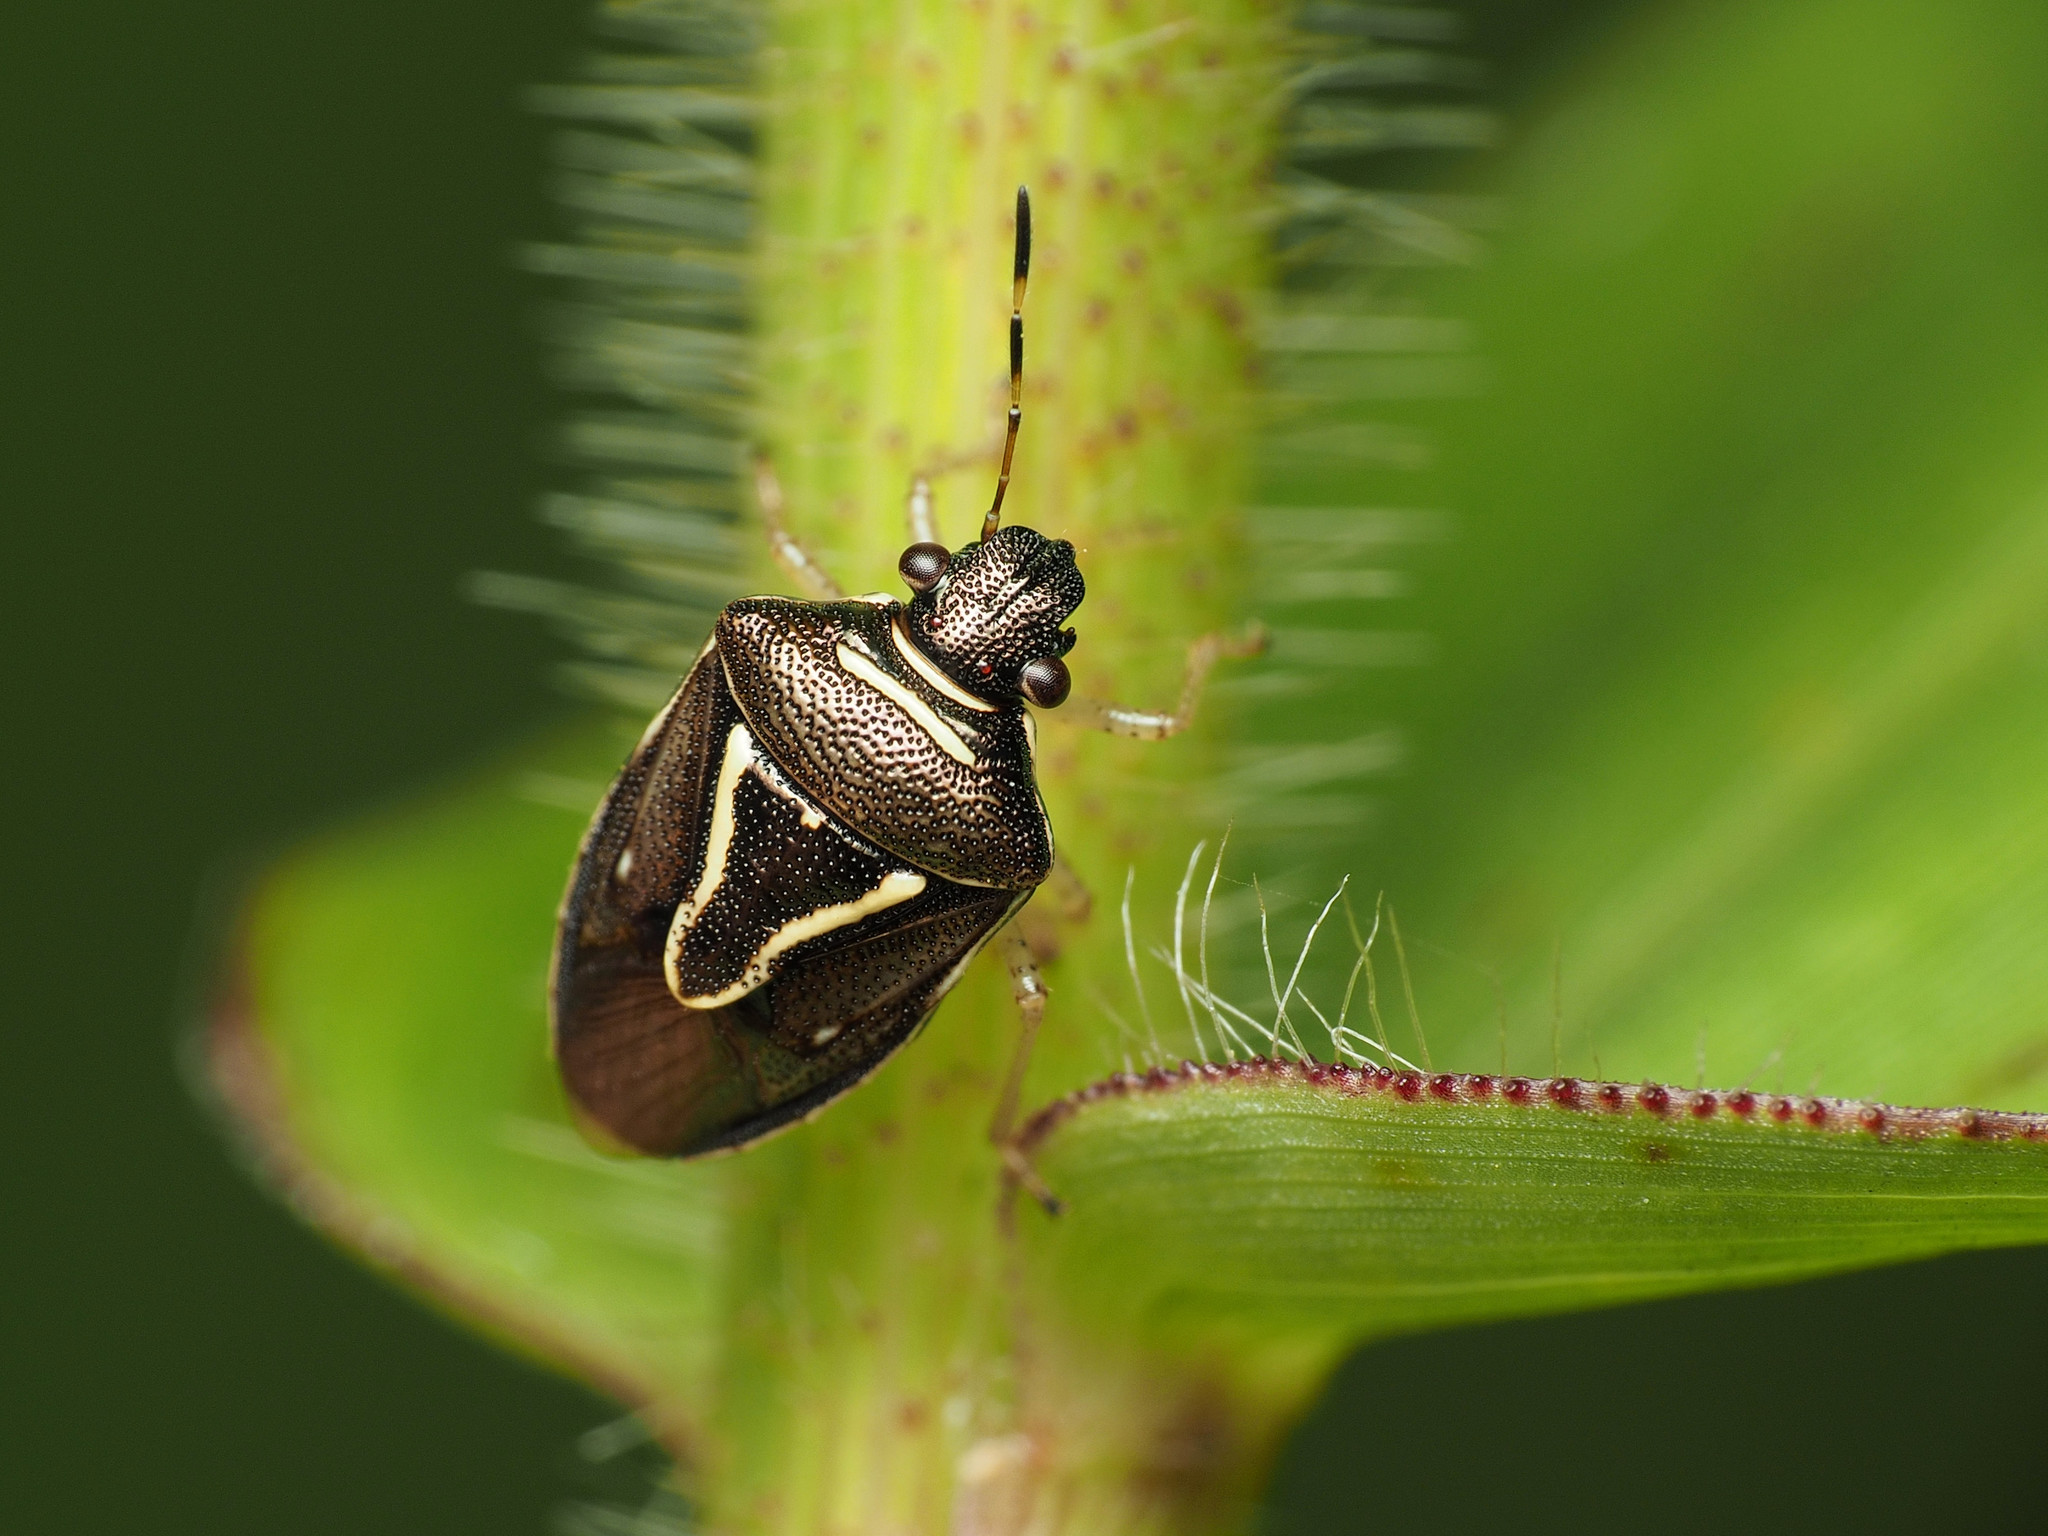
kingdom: Animalia
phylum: Arthropoda
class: Insecta
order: Hemiptera
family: Pentatomidae
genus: Mormidea
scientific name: Mormidea lugens
